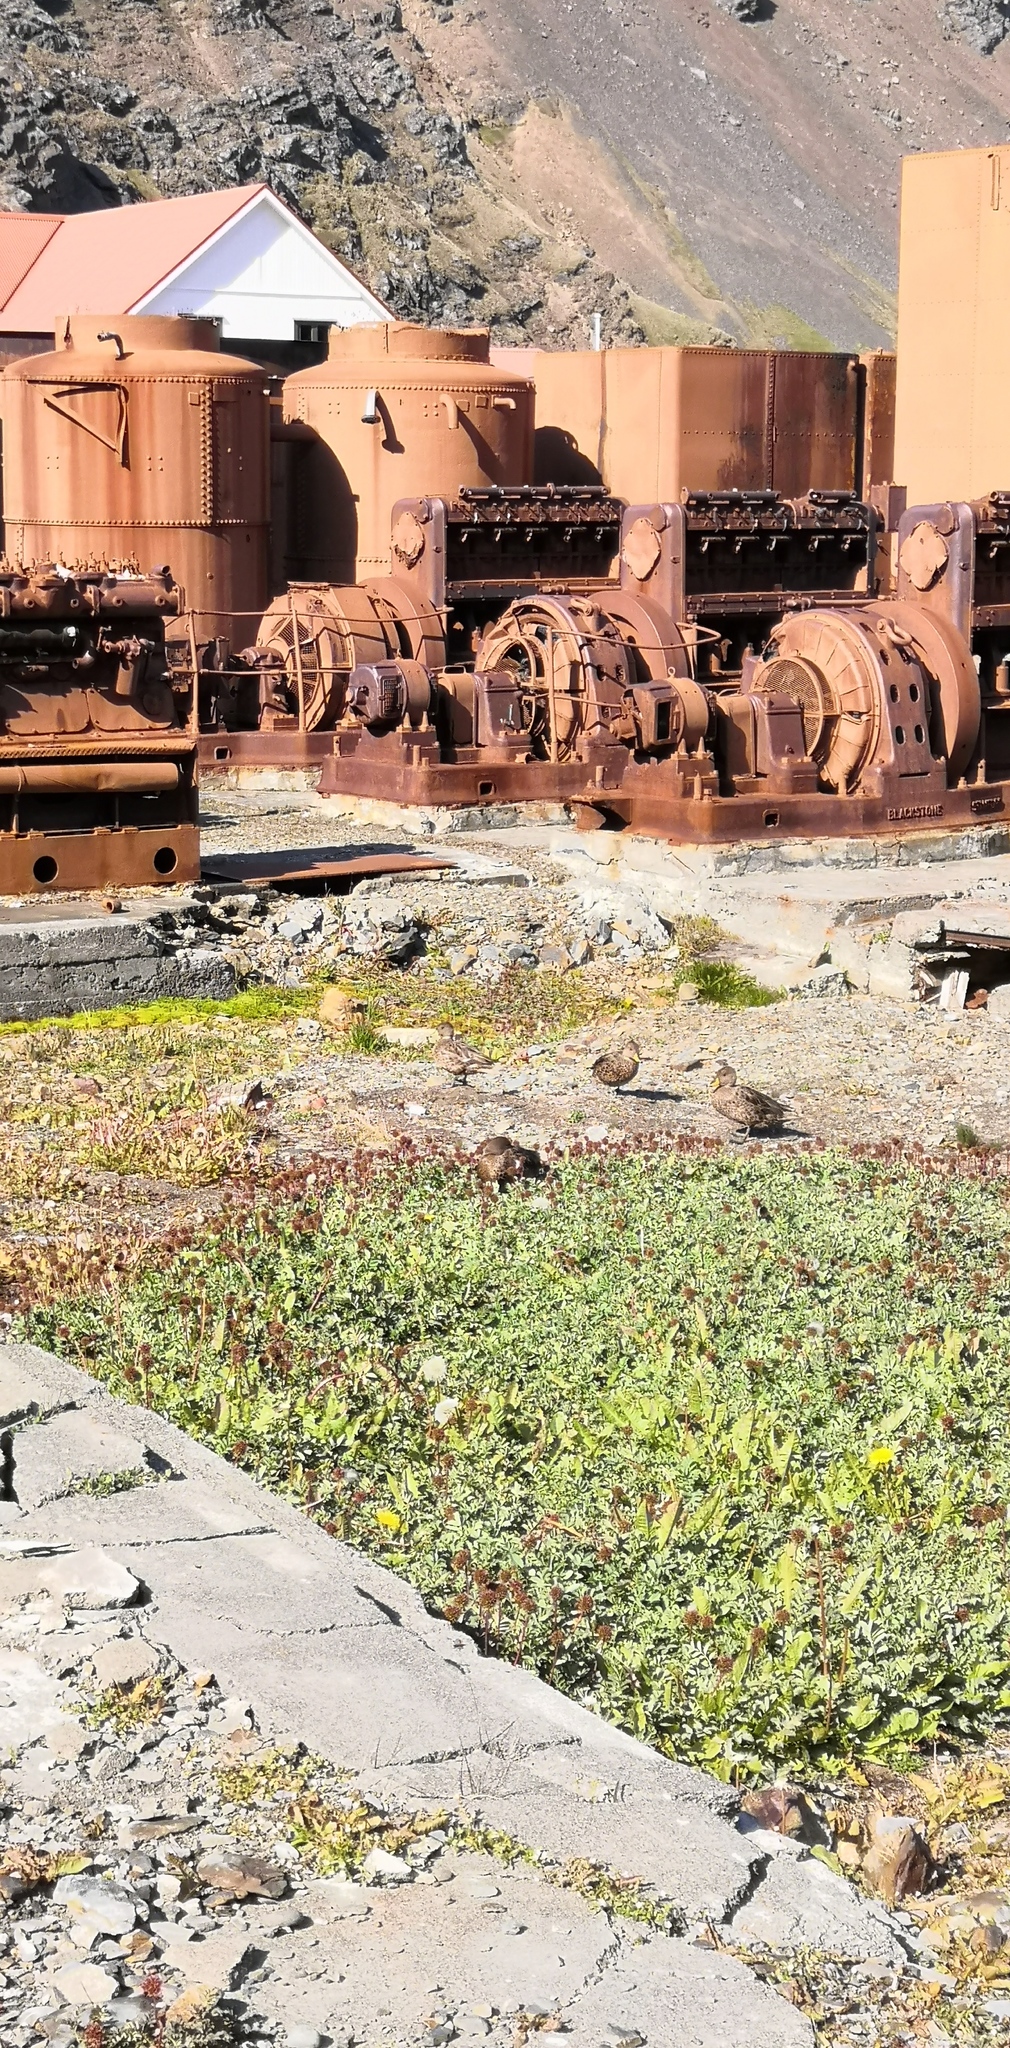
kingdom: Animalia
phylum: Chordata
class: Aves
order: Anseriformes
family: Anatidae
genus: Anas
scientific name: Anas georgica
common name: Yellow-billed pintail
